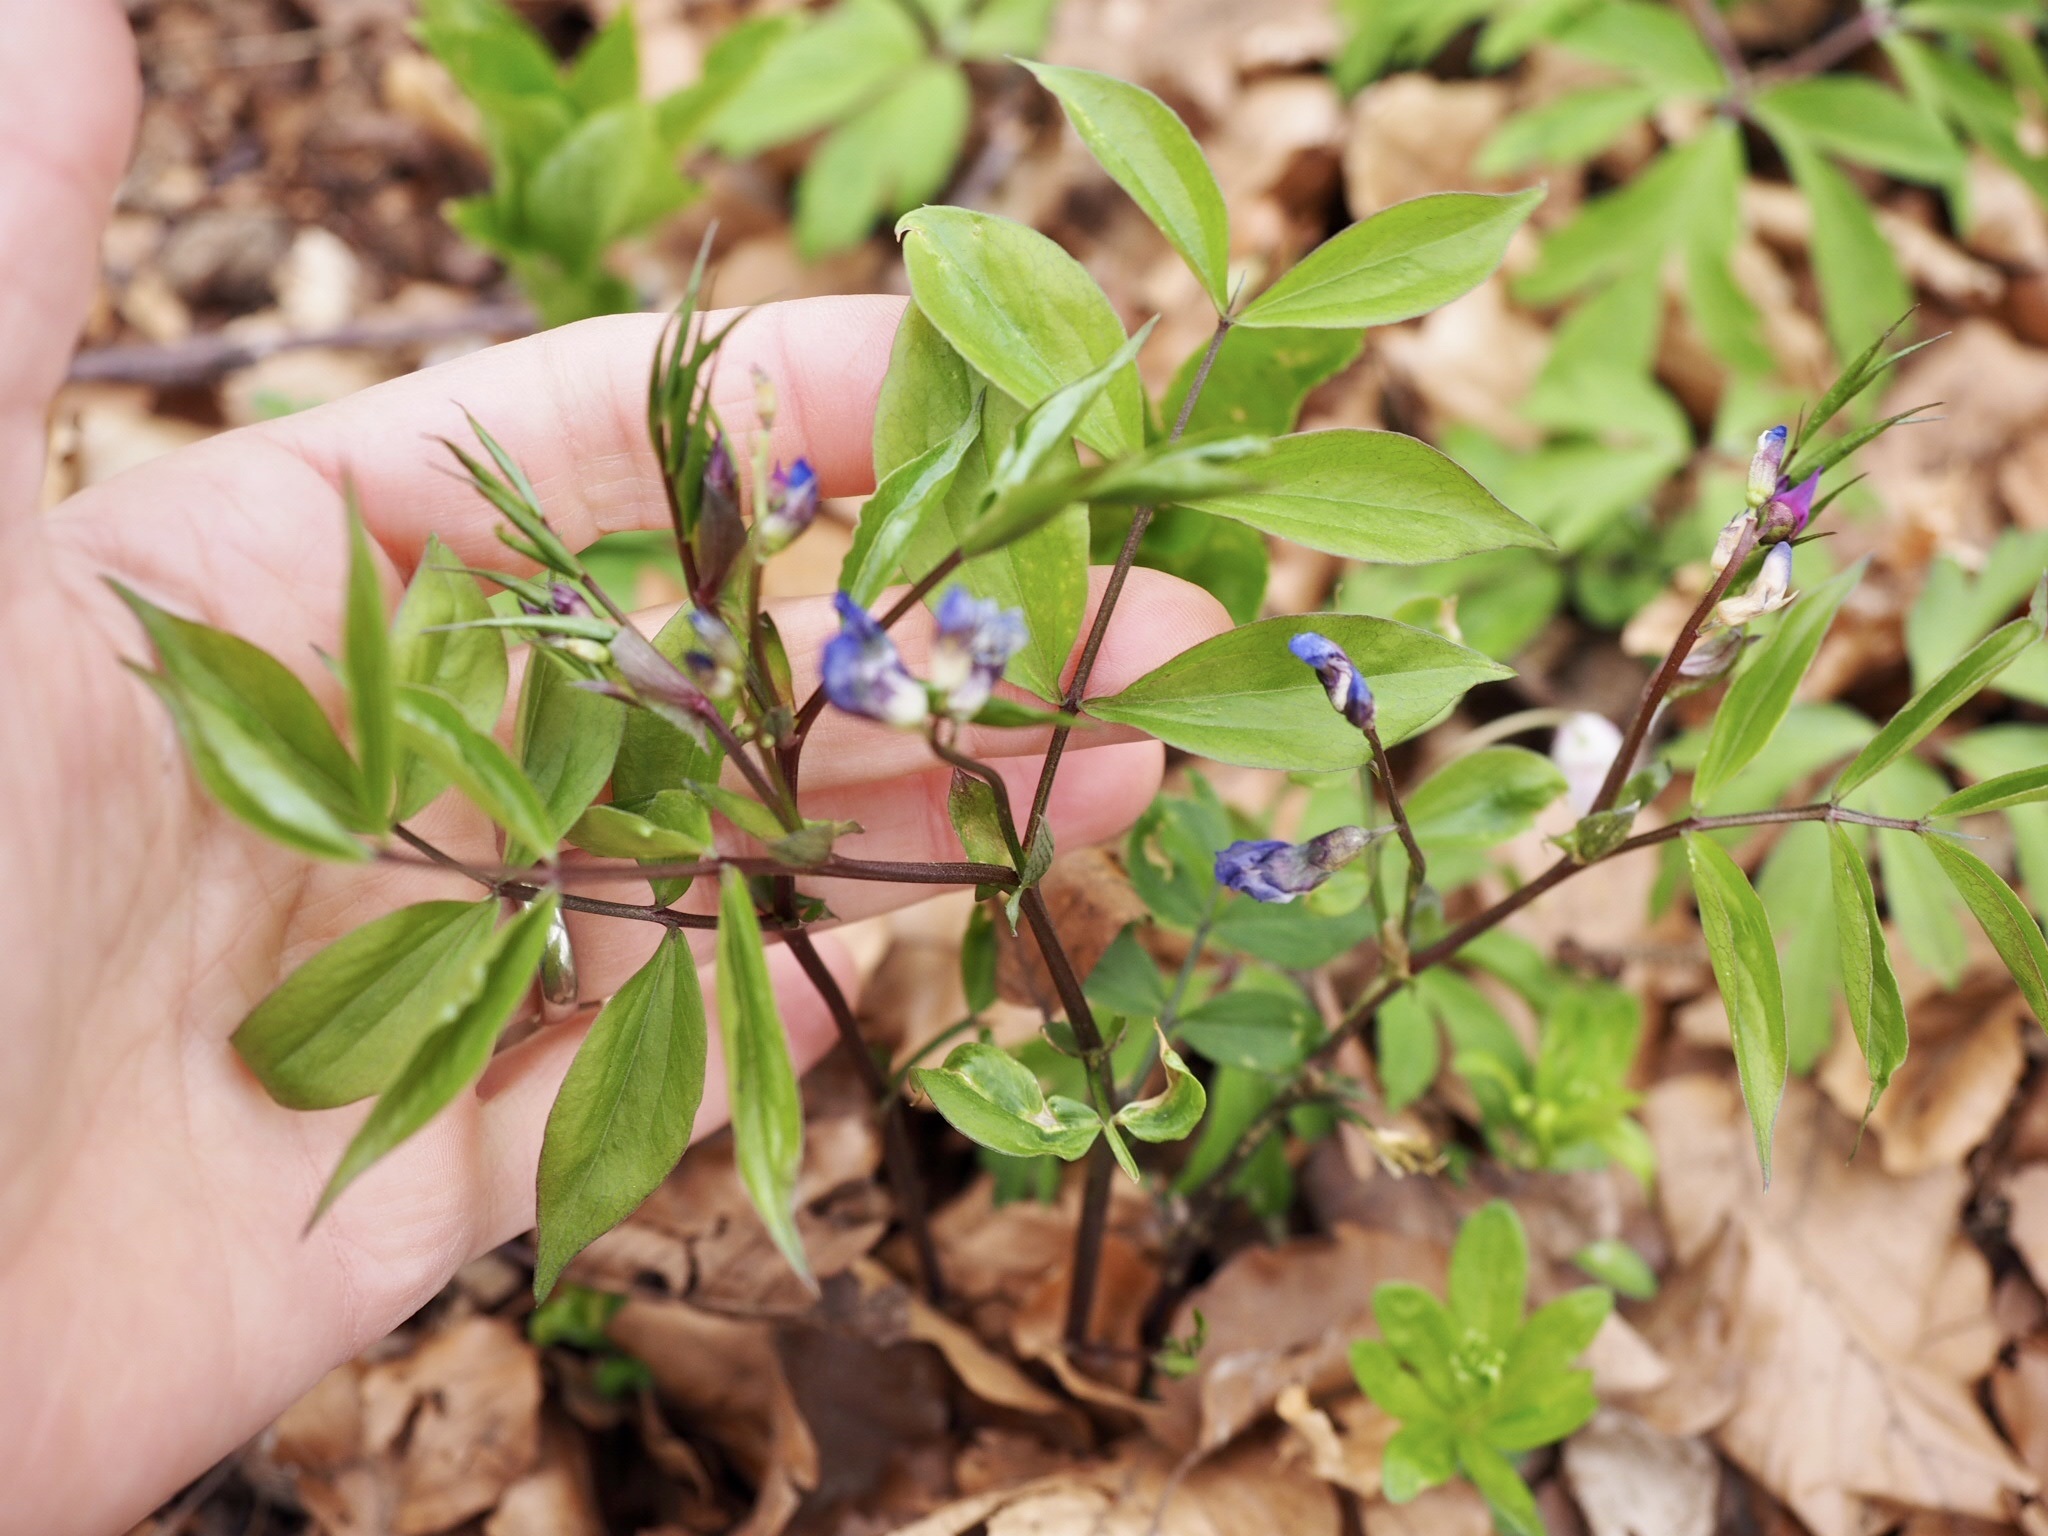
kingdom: Plantae
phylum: Tracheophyta
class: Magnoliopsida
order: Fabales
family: Fabaceae
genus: Lathyrus
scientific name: Lathyrus vernus
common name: Spring pea
